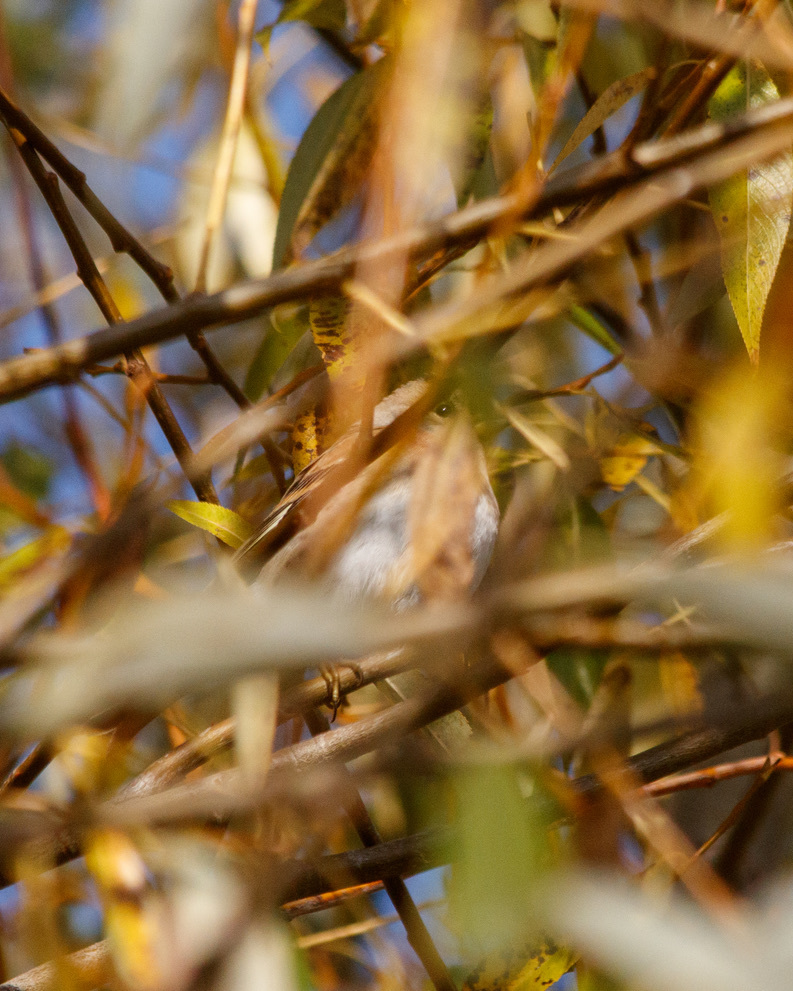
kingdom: Animalia
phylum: Chordata
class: Aves
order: Passeriformes
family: Fringillidae
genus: Fringilla
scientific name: Fringilla montifringilla
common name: Brambling
